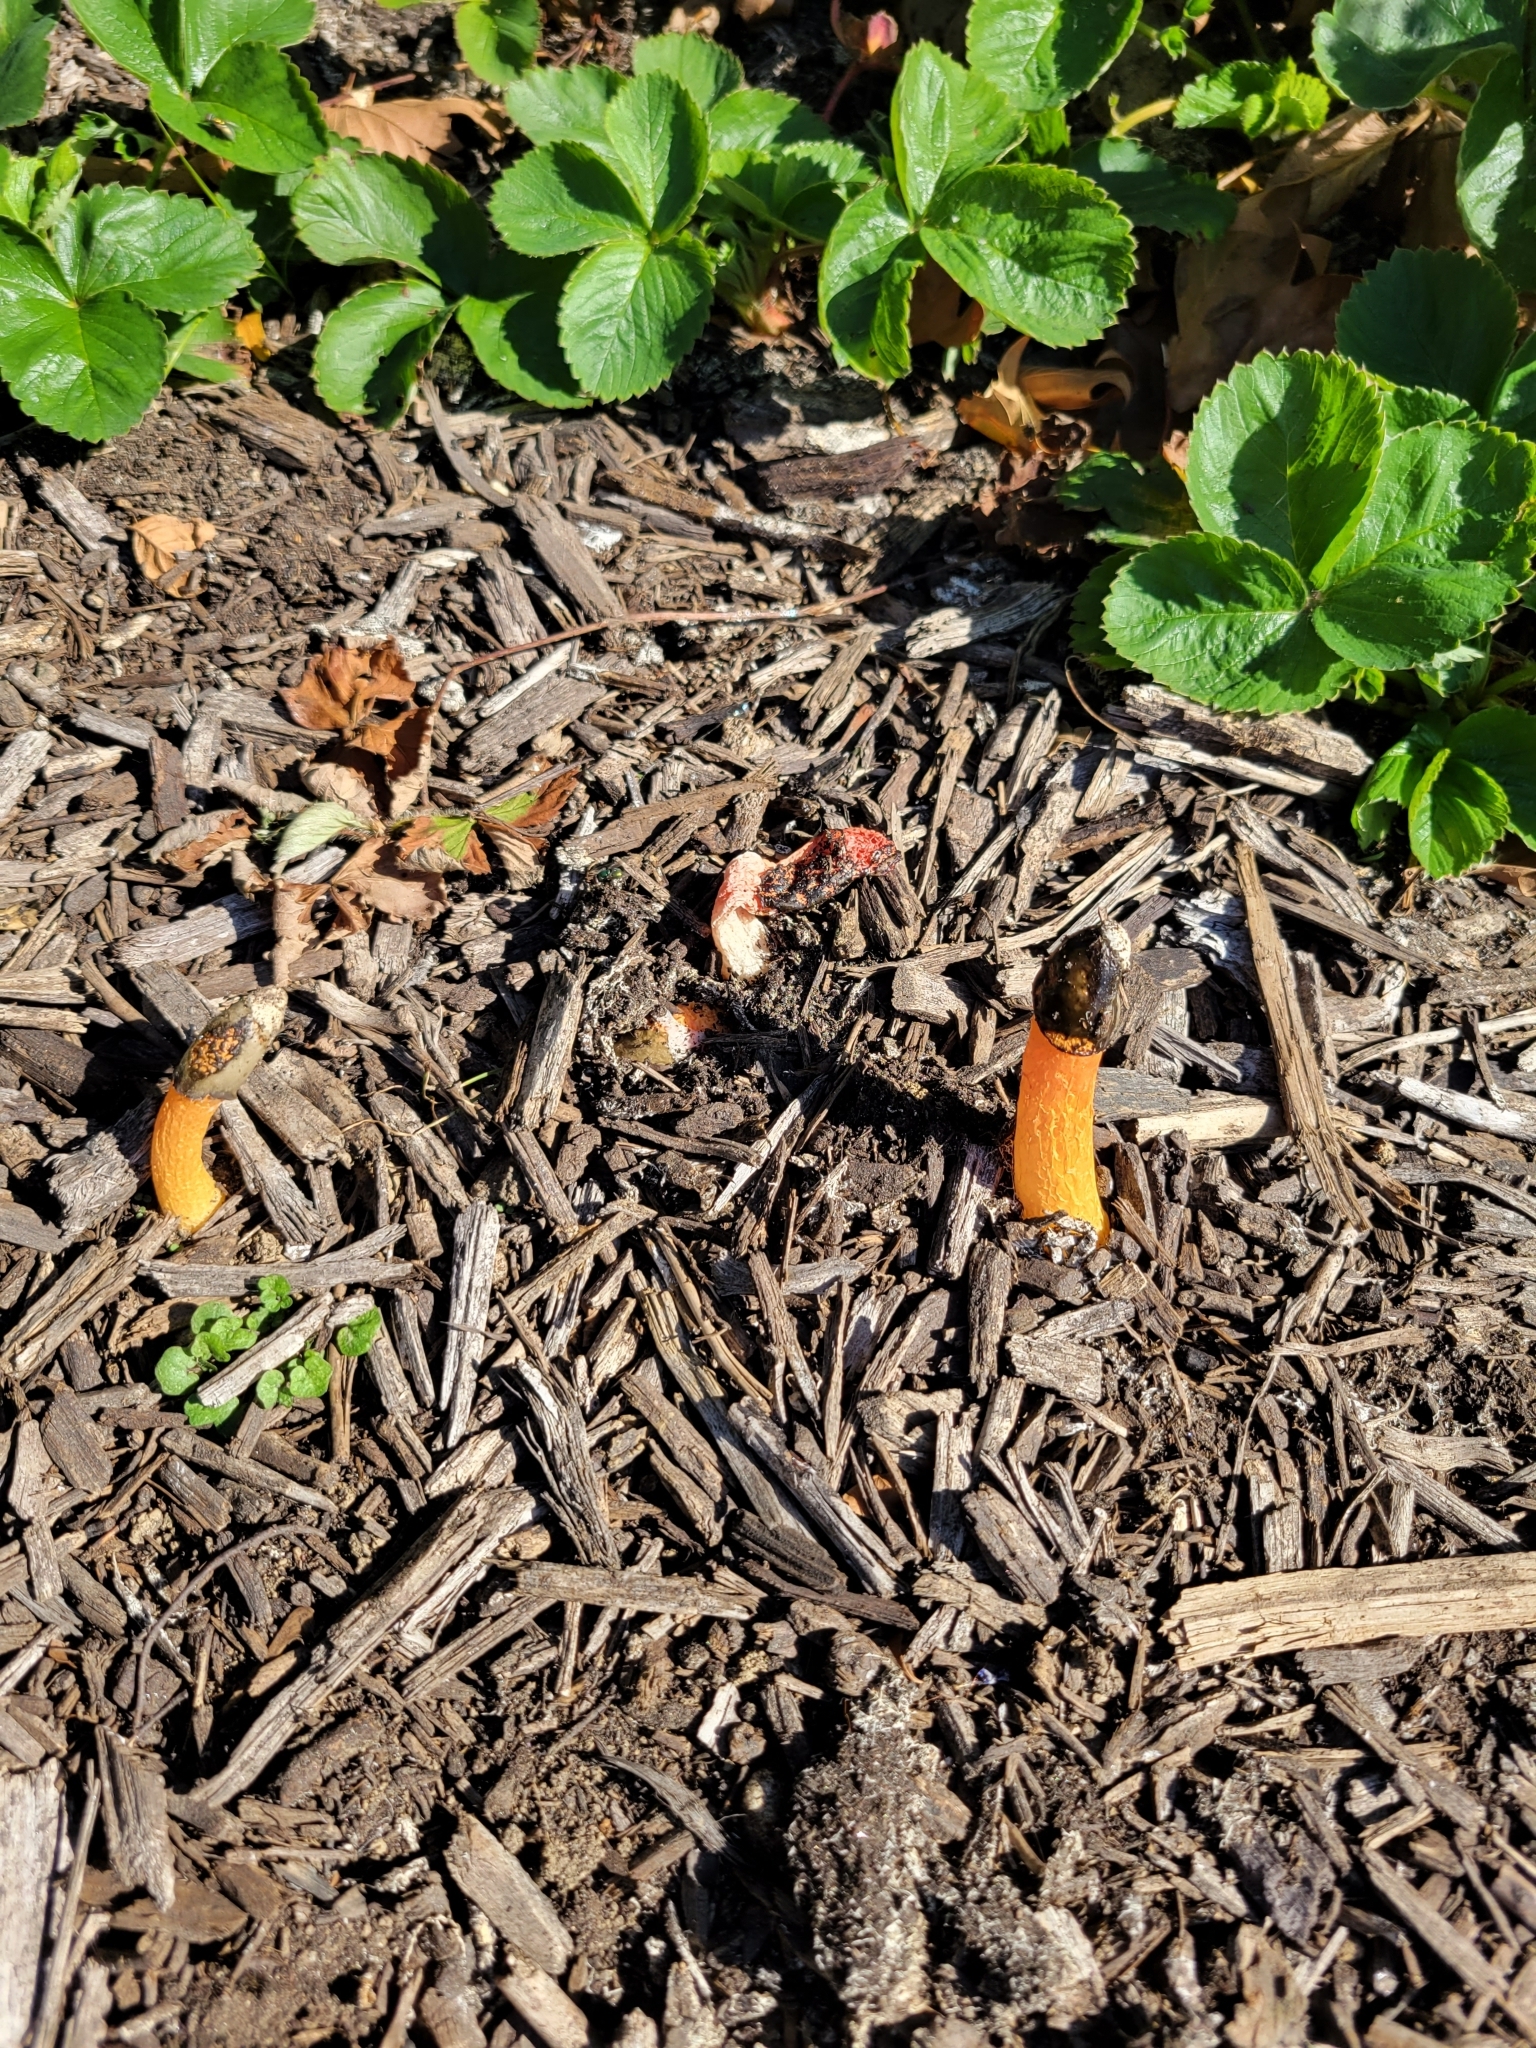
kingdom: Fungi
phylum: Basidiomycota
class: Agaricomycetes
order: Phallales
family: Phallaceae
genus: Phallus
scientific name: Phallus rugulosus
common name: Wrinkly stinkhorn
